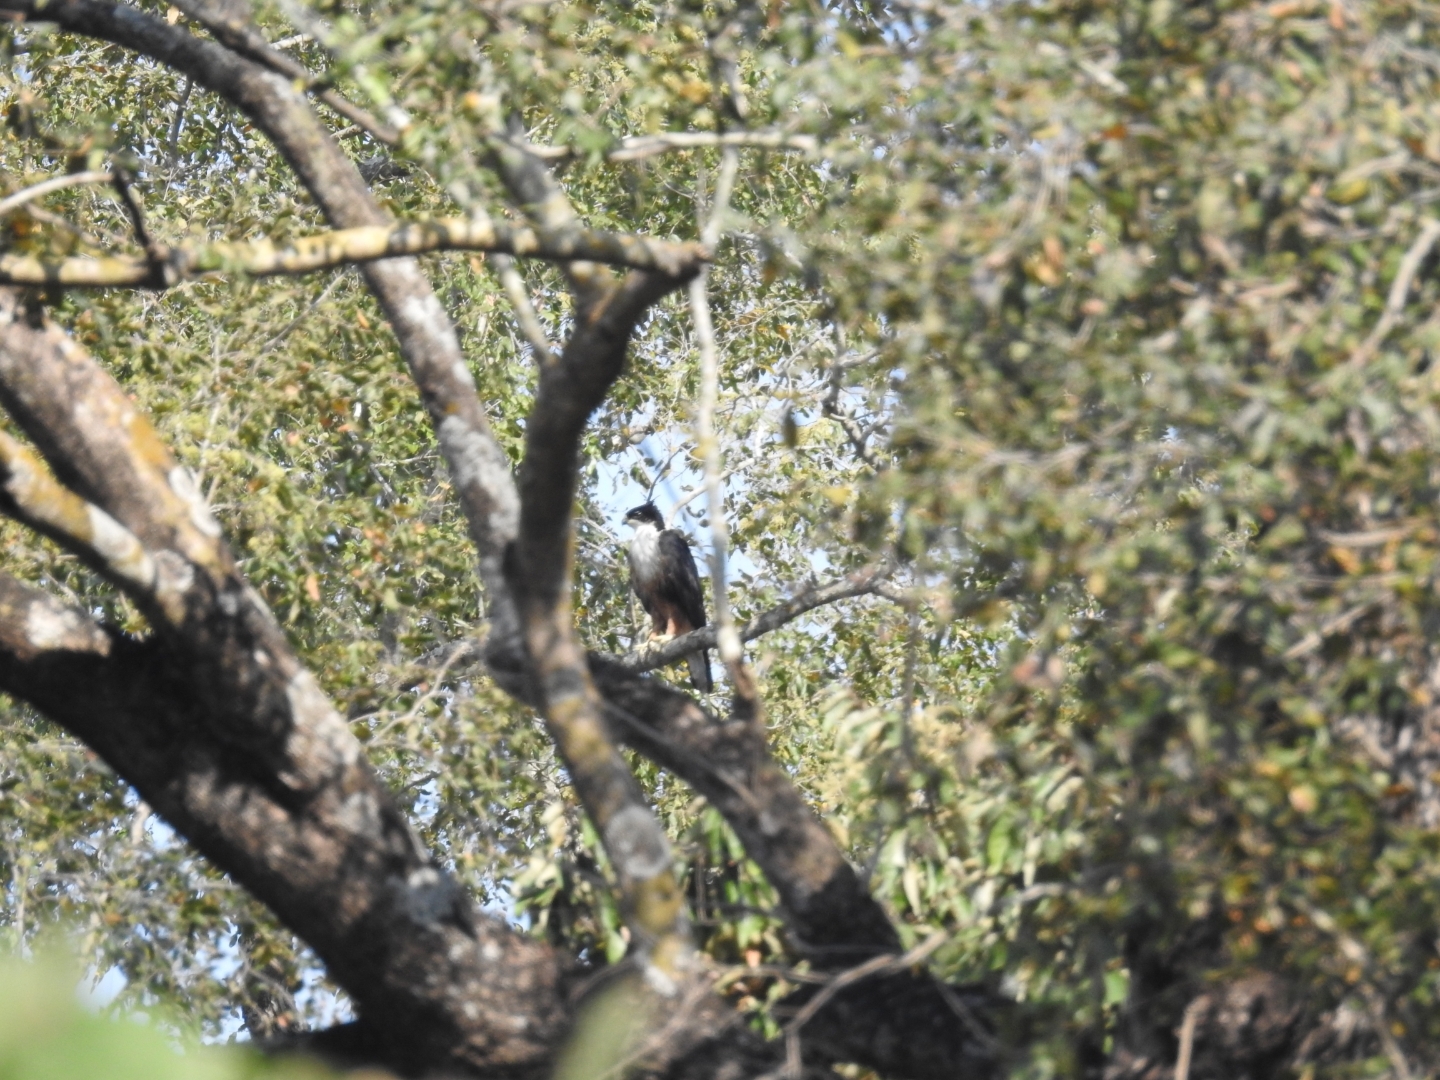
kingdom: Animalia
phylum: Chordata
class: Aves
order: Accipitriformes
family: Accipitridae
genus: Lophotriorchis
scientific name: Lophotriorchis kienerii
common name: Rufous-bellied eagle
